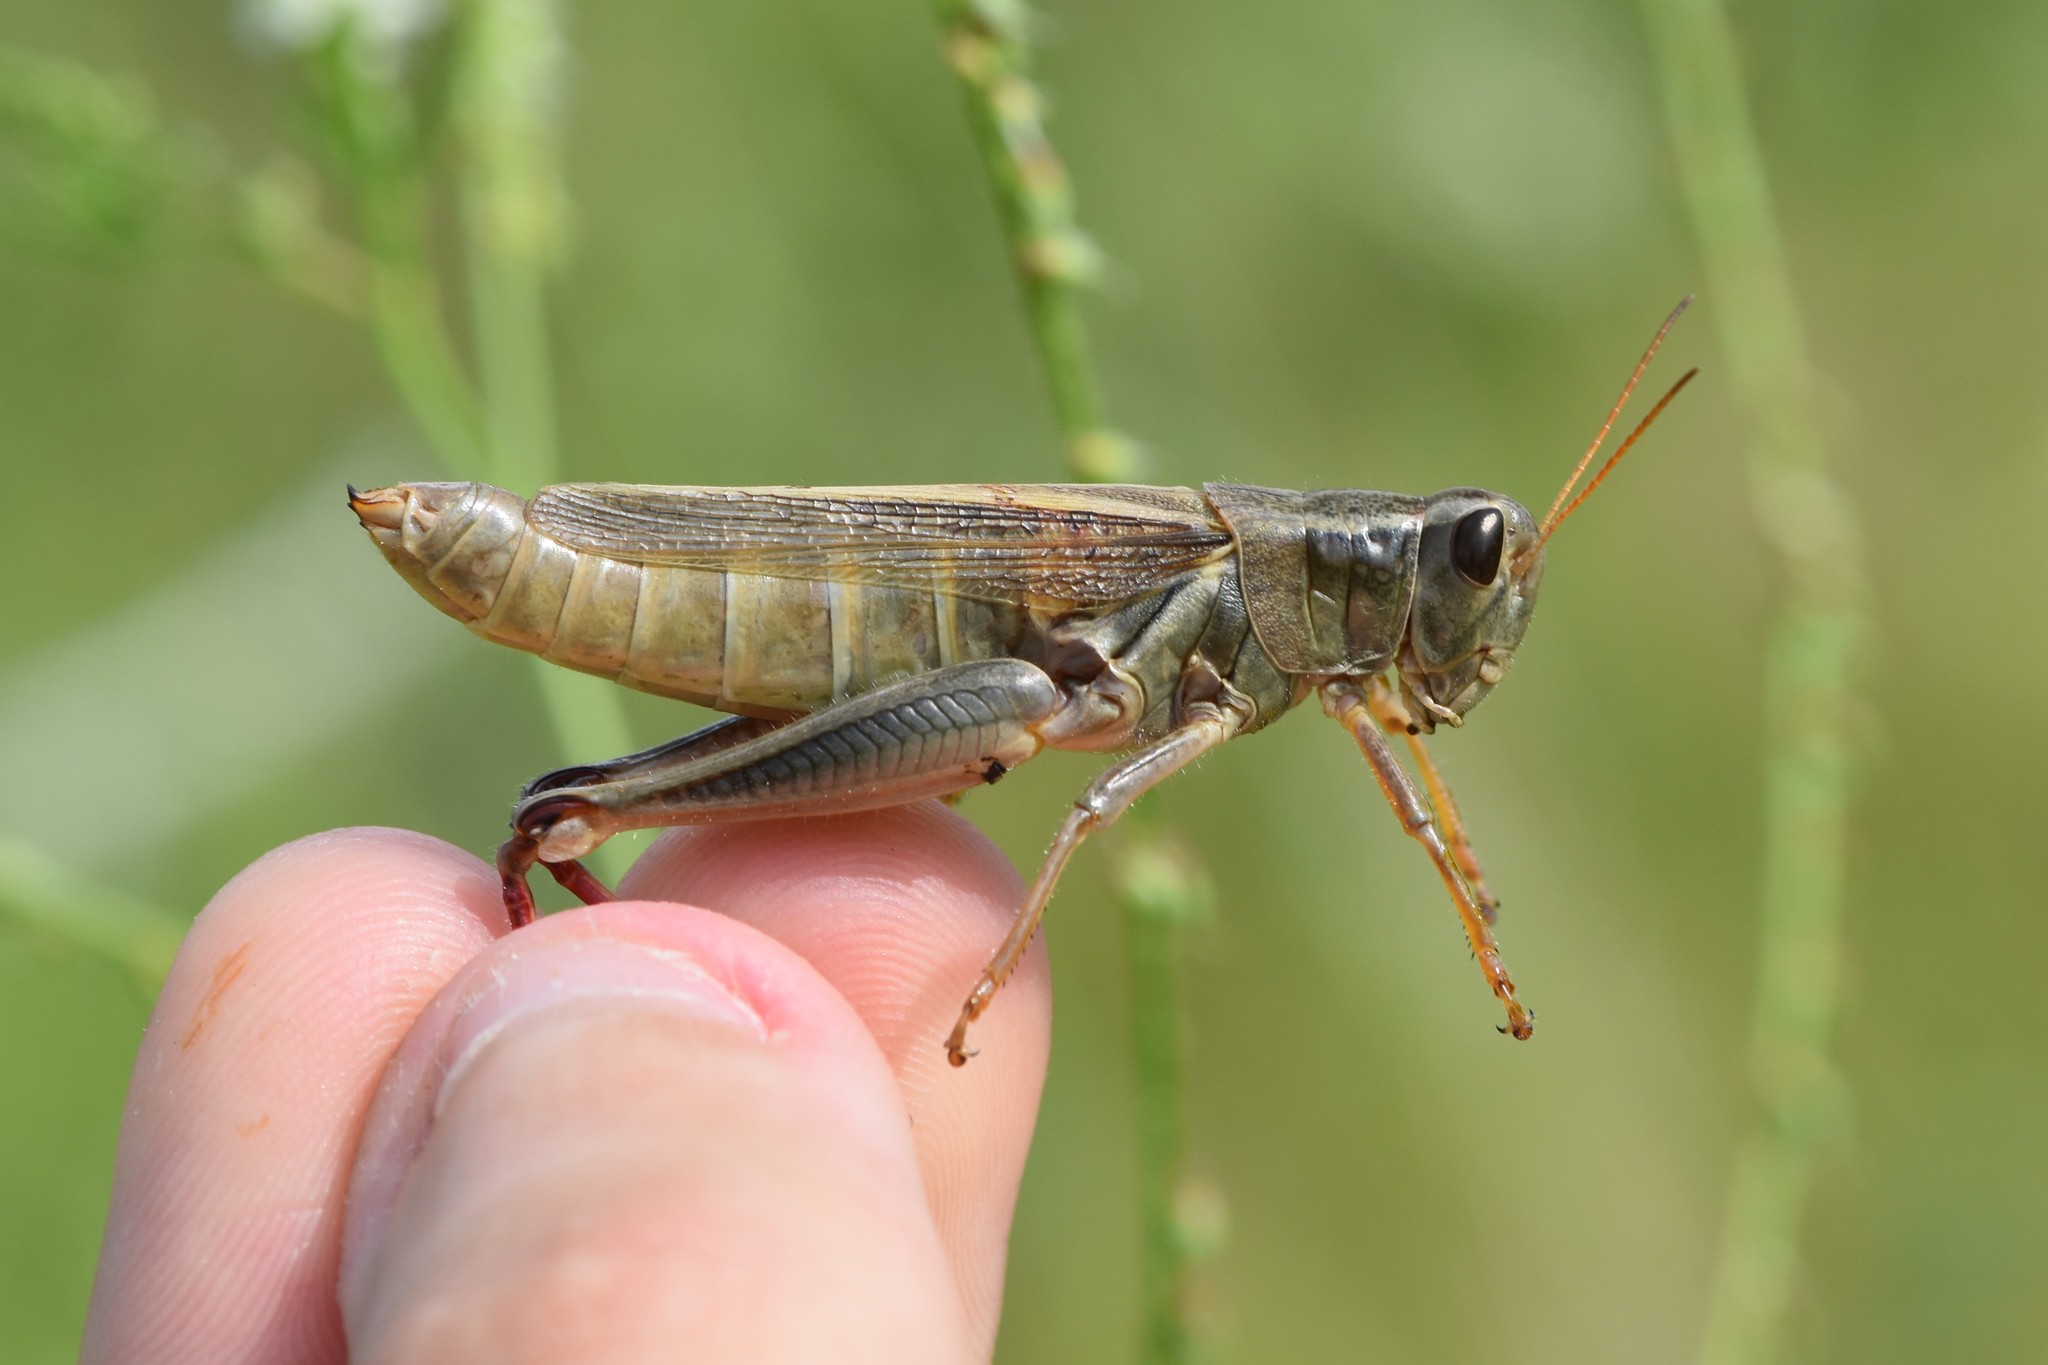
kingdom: Animalia
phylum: Arthropoda
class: Insecta
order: Orthoptera
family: Acrididae
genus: Melanoplus
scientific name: Melanoplus bivittatus
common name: Two-striped grasshopper
